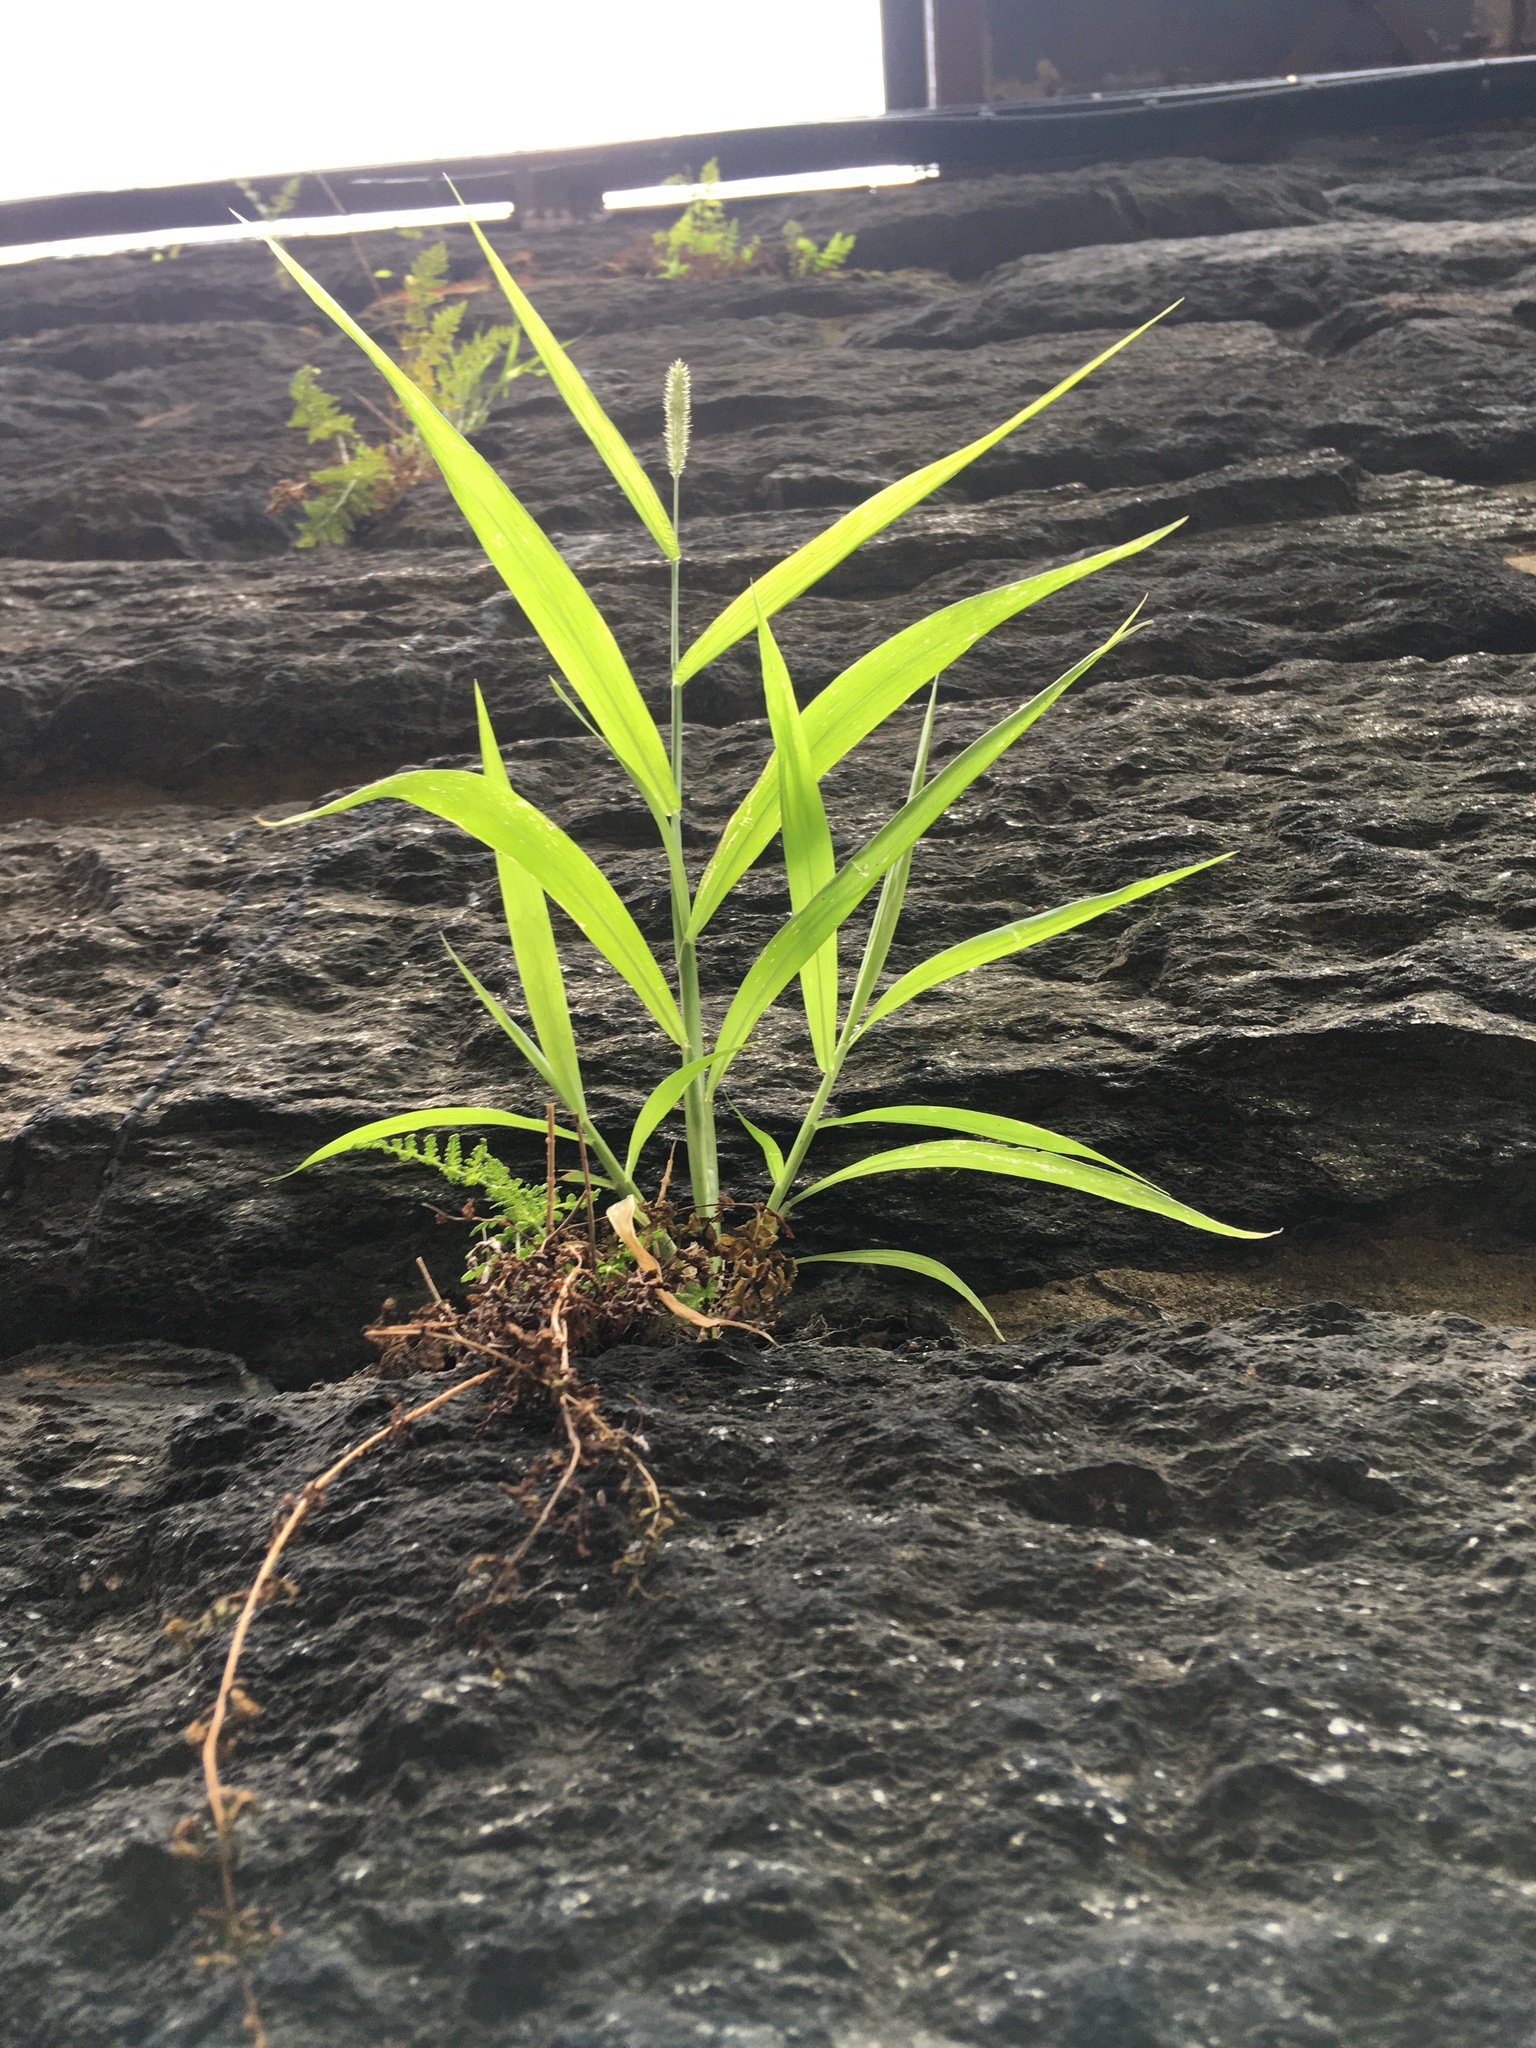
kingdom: Plantae
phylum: Tracheophyta
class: Liliopsida
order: Poales
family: Poaceae
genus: Setaria
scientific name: Setaria viridis
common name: Green bristlegrass
